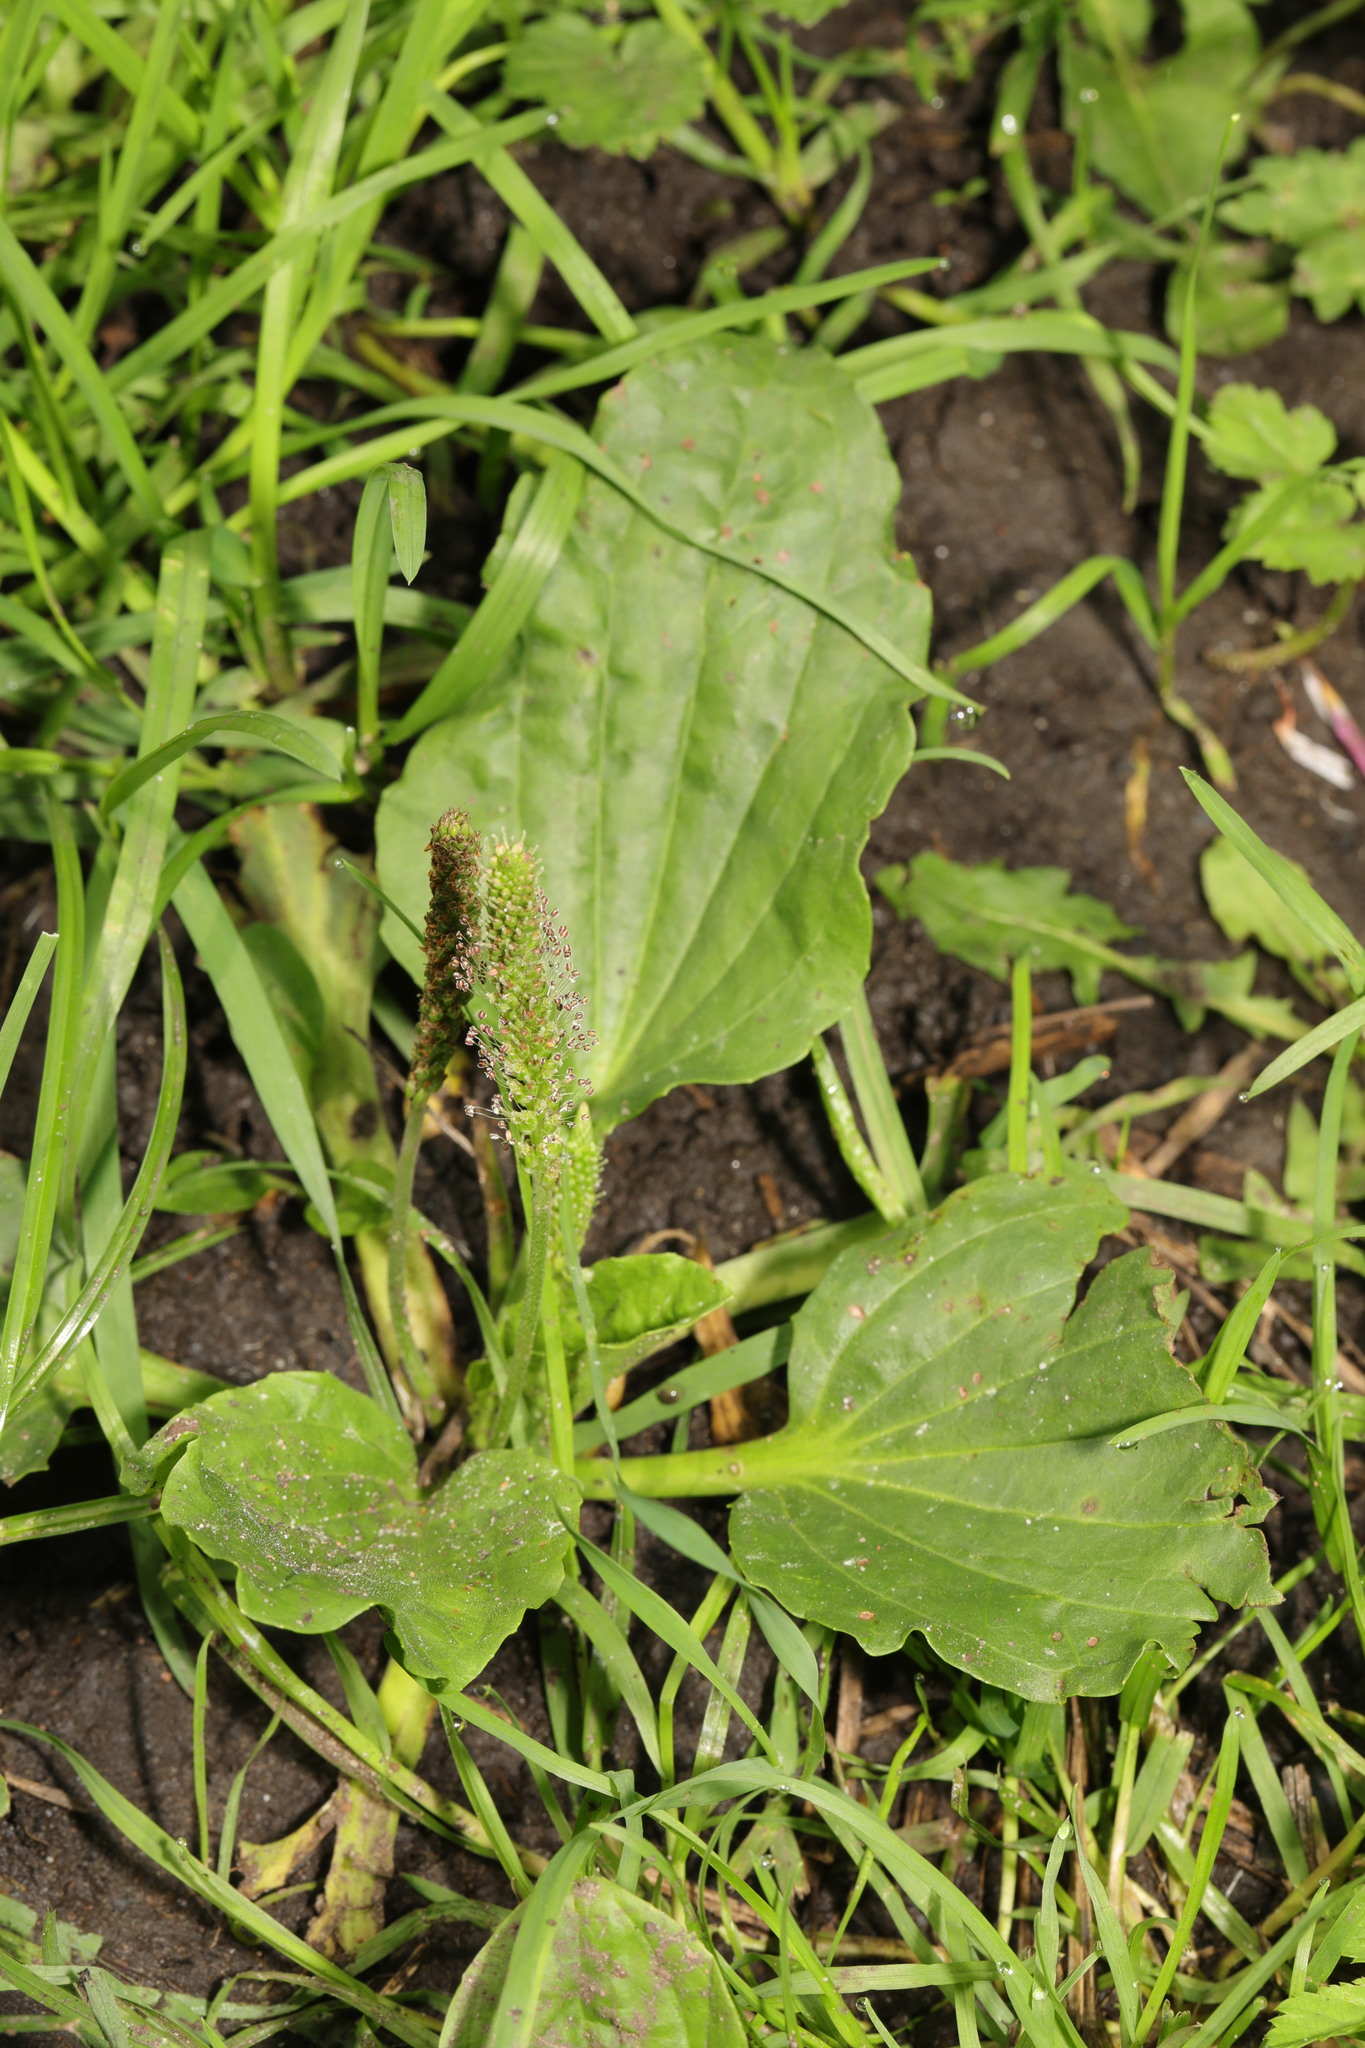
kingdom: Plantae
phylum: Tracheophyta
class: Magnoliopsida
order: Lamiales
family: Plantaginaceae
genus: Plantago
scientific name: Plantago major
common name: Common plantain
